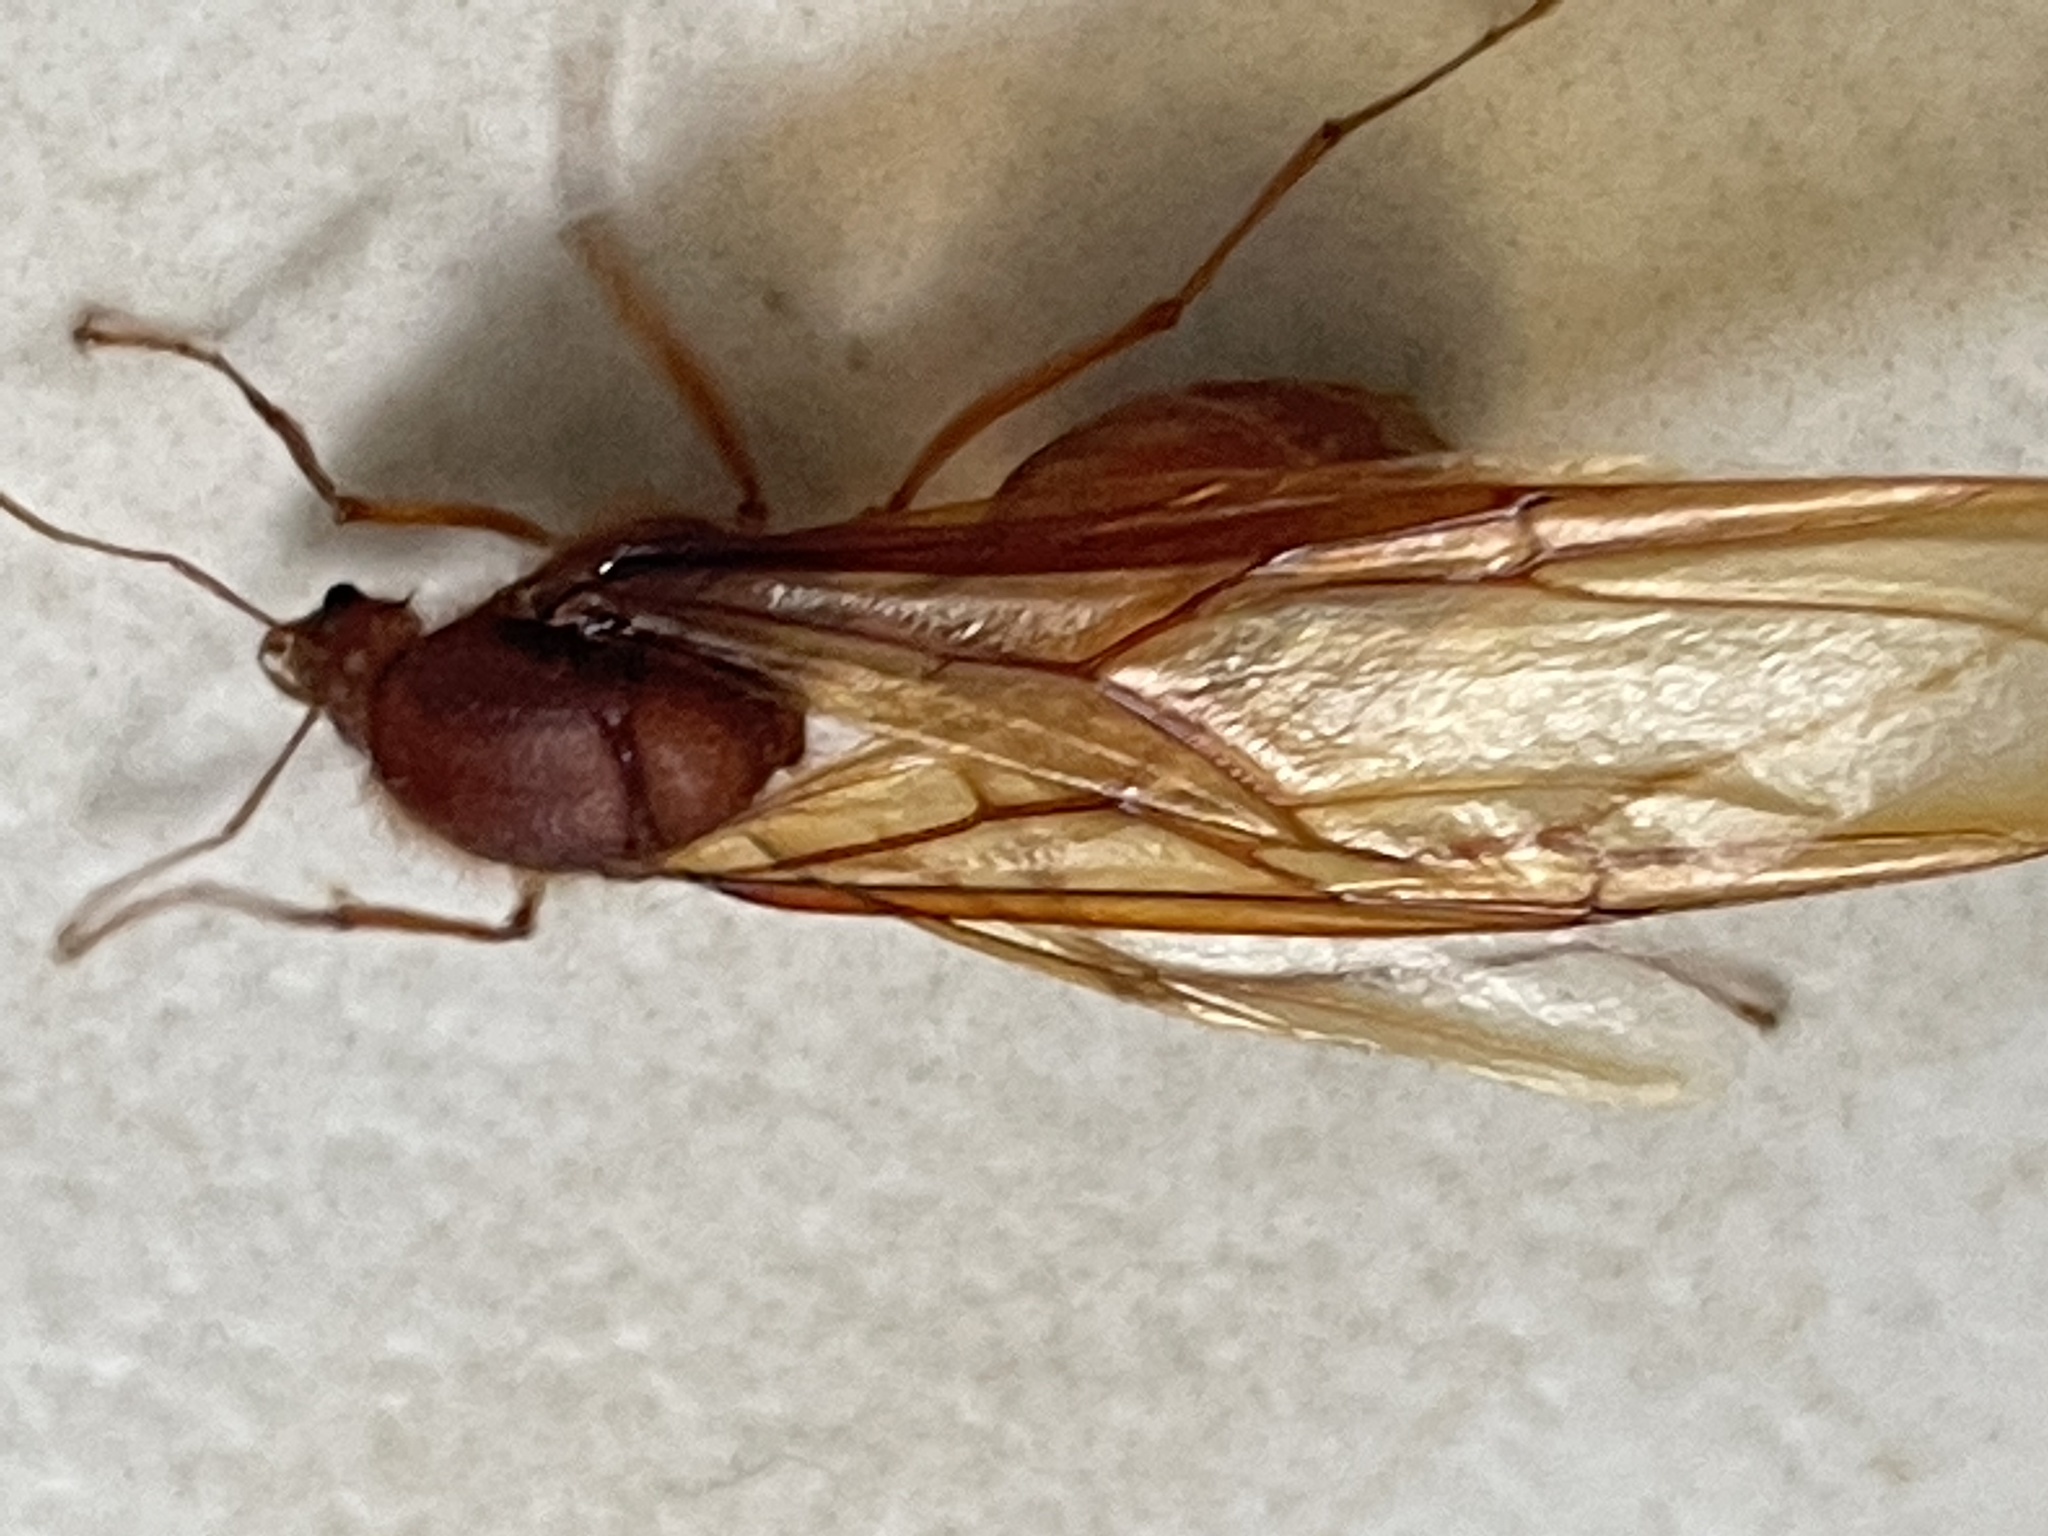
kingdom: Animalia
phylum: Arthropoda
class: Insecta
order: Hymenoptera
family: Formicidae
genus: Atta
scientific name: Atta mexicana
